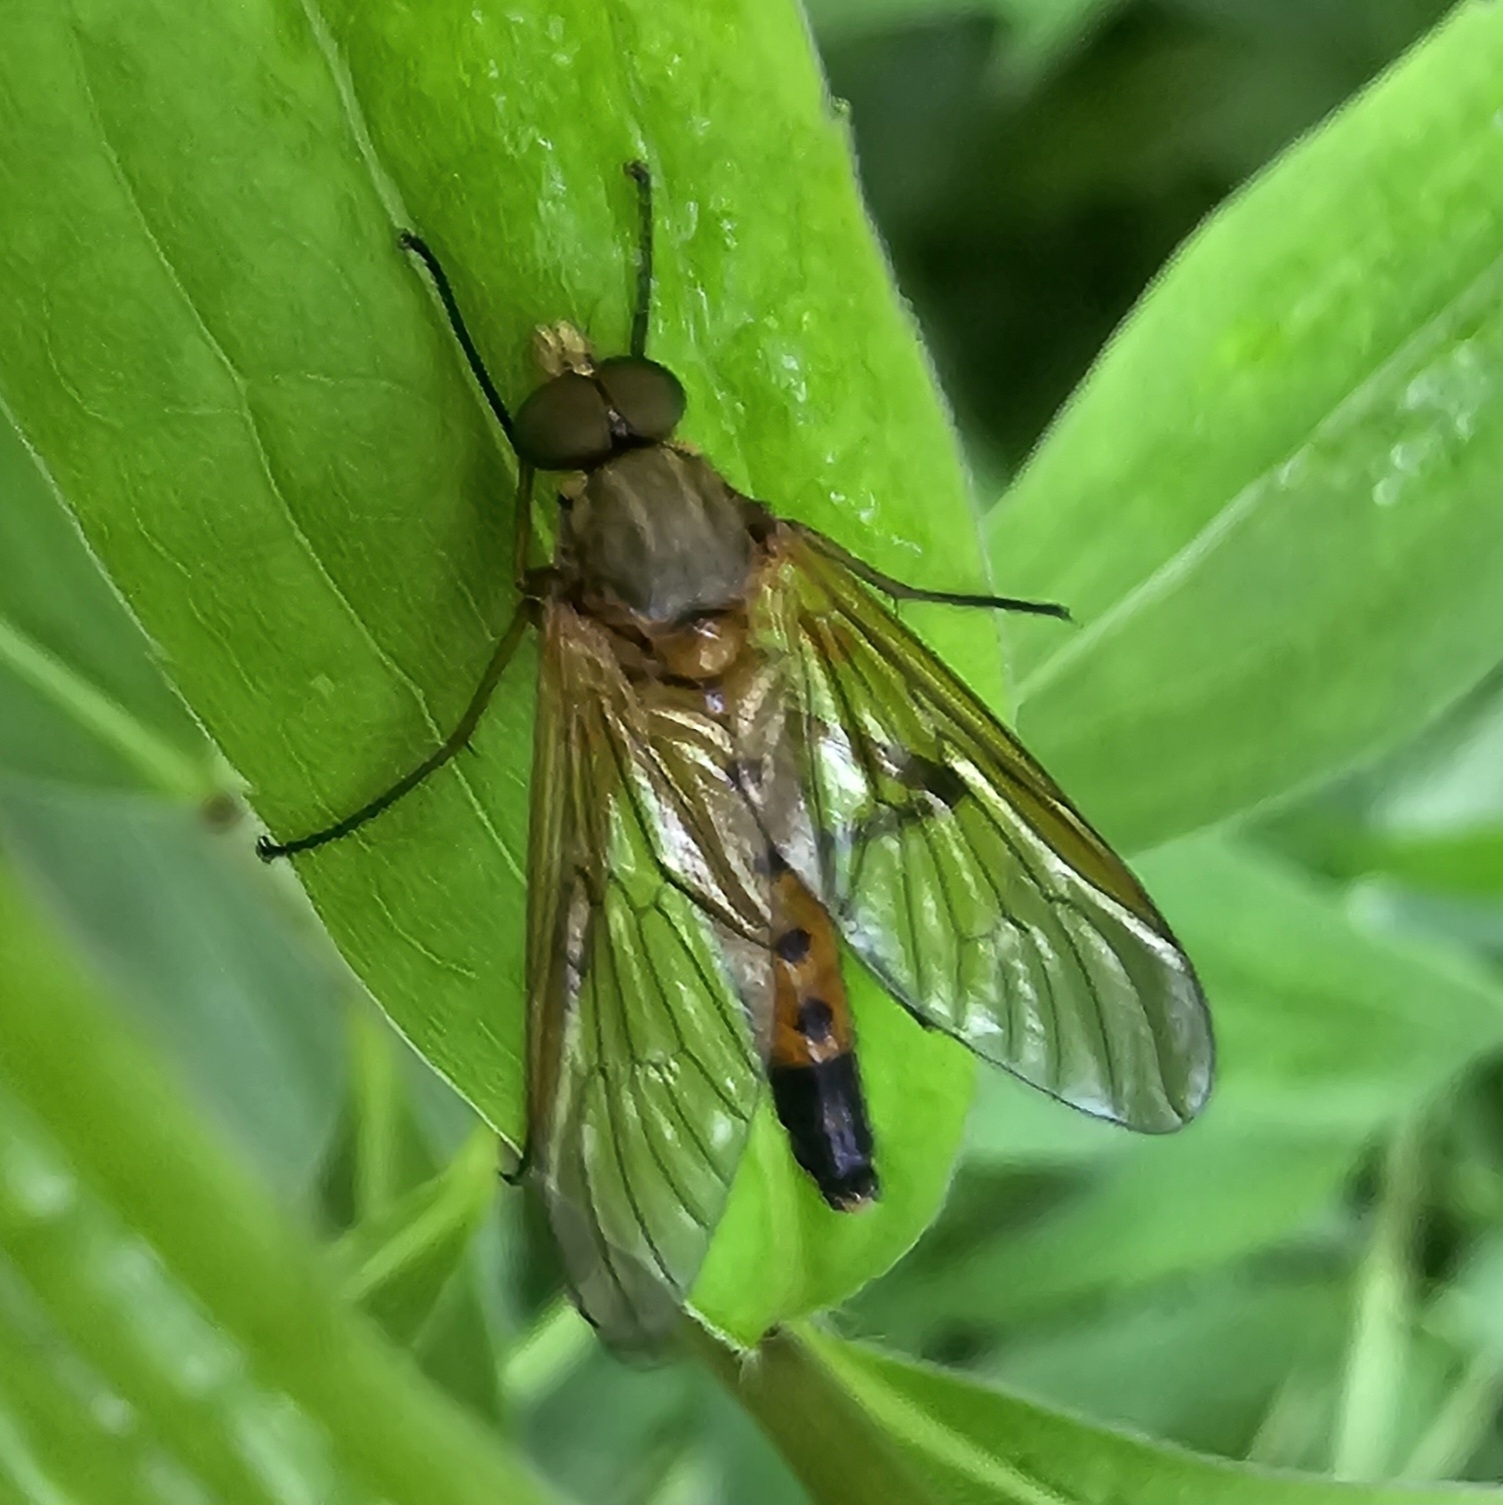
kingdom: Animalia
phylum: Arthropoda
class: Insecta
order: Diptera
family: Rhagionidae
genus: Rhagio
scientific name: Rhagio tringaria
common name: Marsh snipefly
